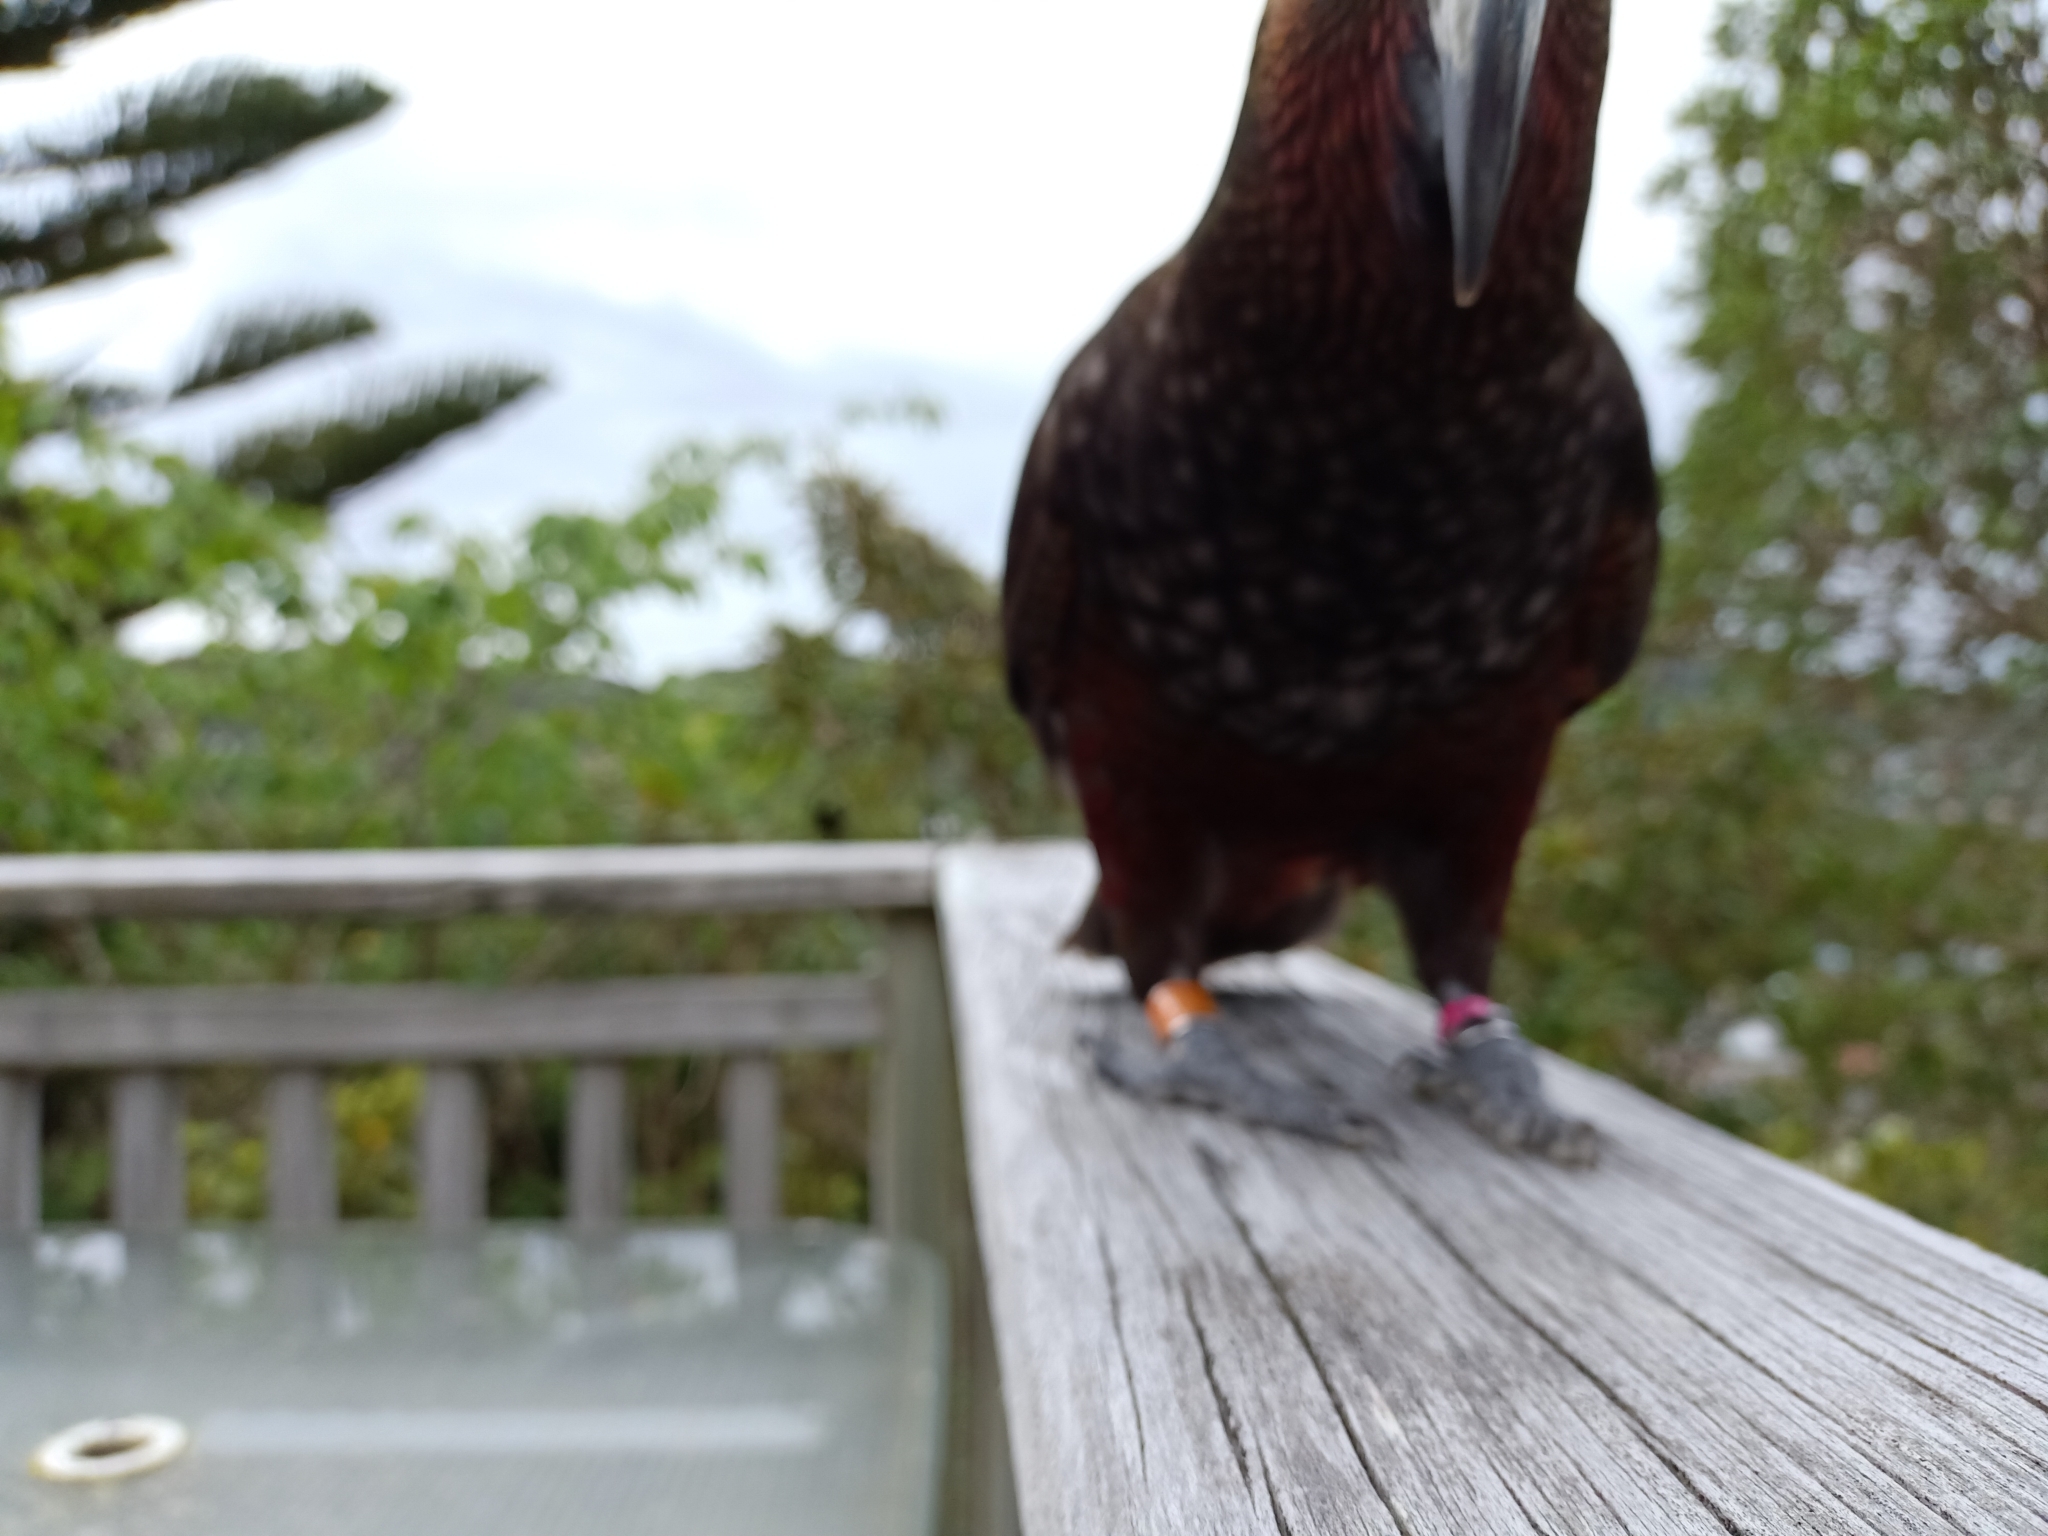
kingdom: Animalia
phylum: Chordata
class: Aves
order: Psittaciformes
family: Psittacidae
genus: Nestor
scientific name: Nestor meridionalis
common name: New zealand kaka
